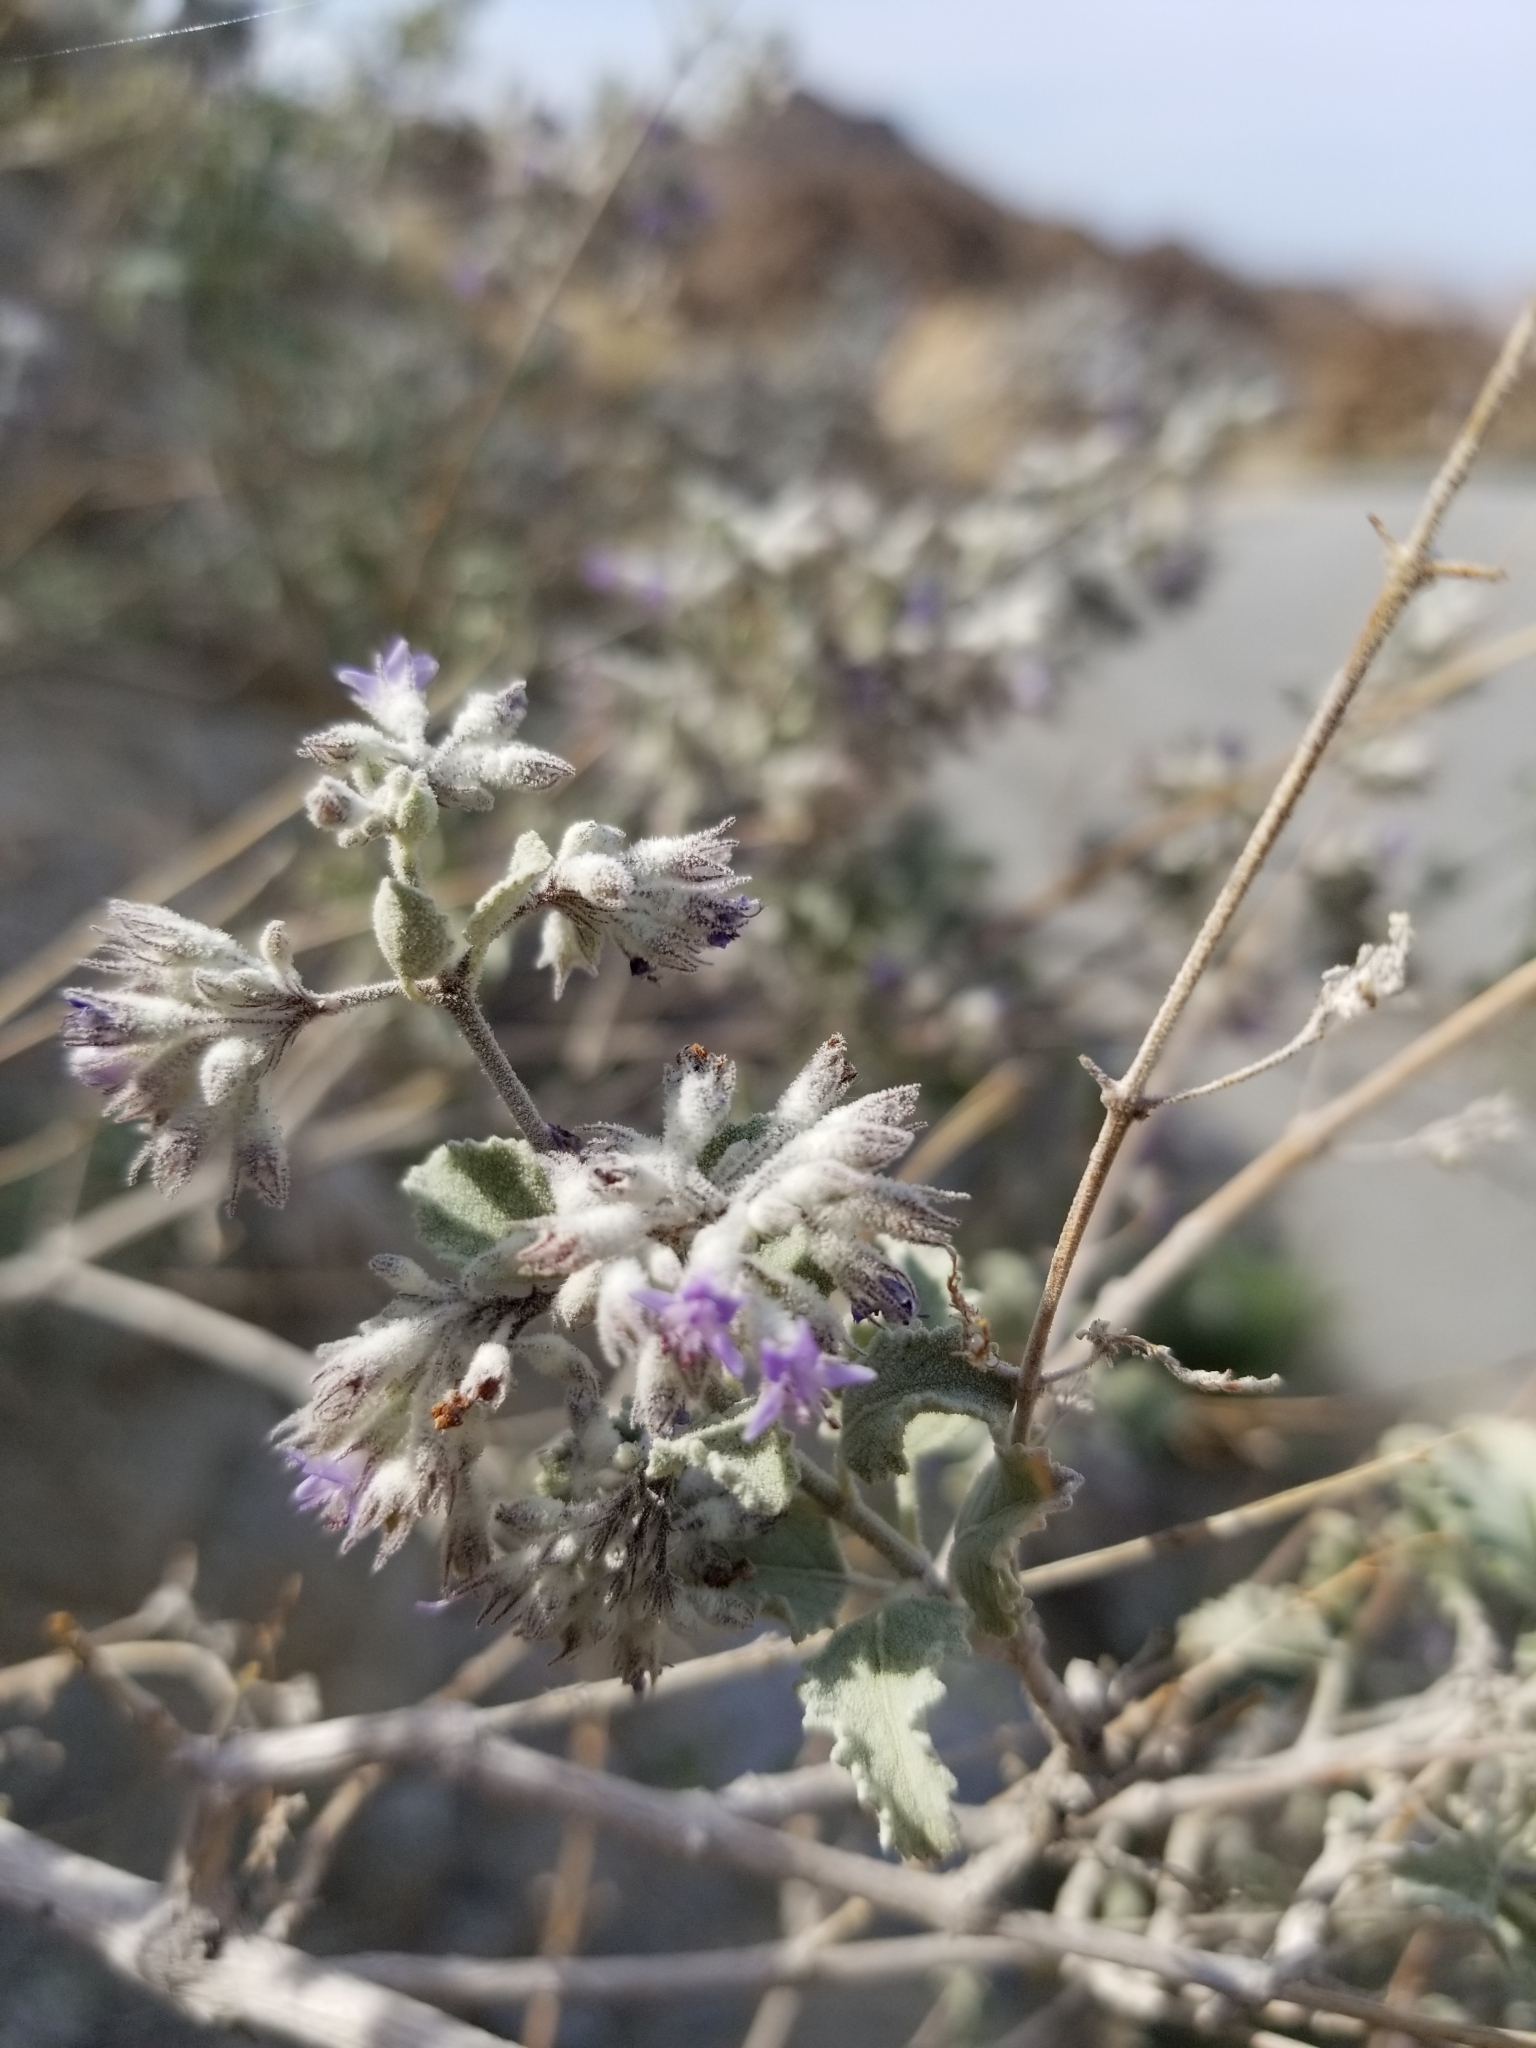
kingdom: Plantae
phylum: Tracheophyta
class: Magnoliopsida
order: Lamiales
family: Lamiaceae
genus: Condea
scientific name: Condea emoryi
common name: Chia
